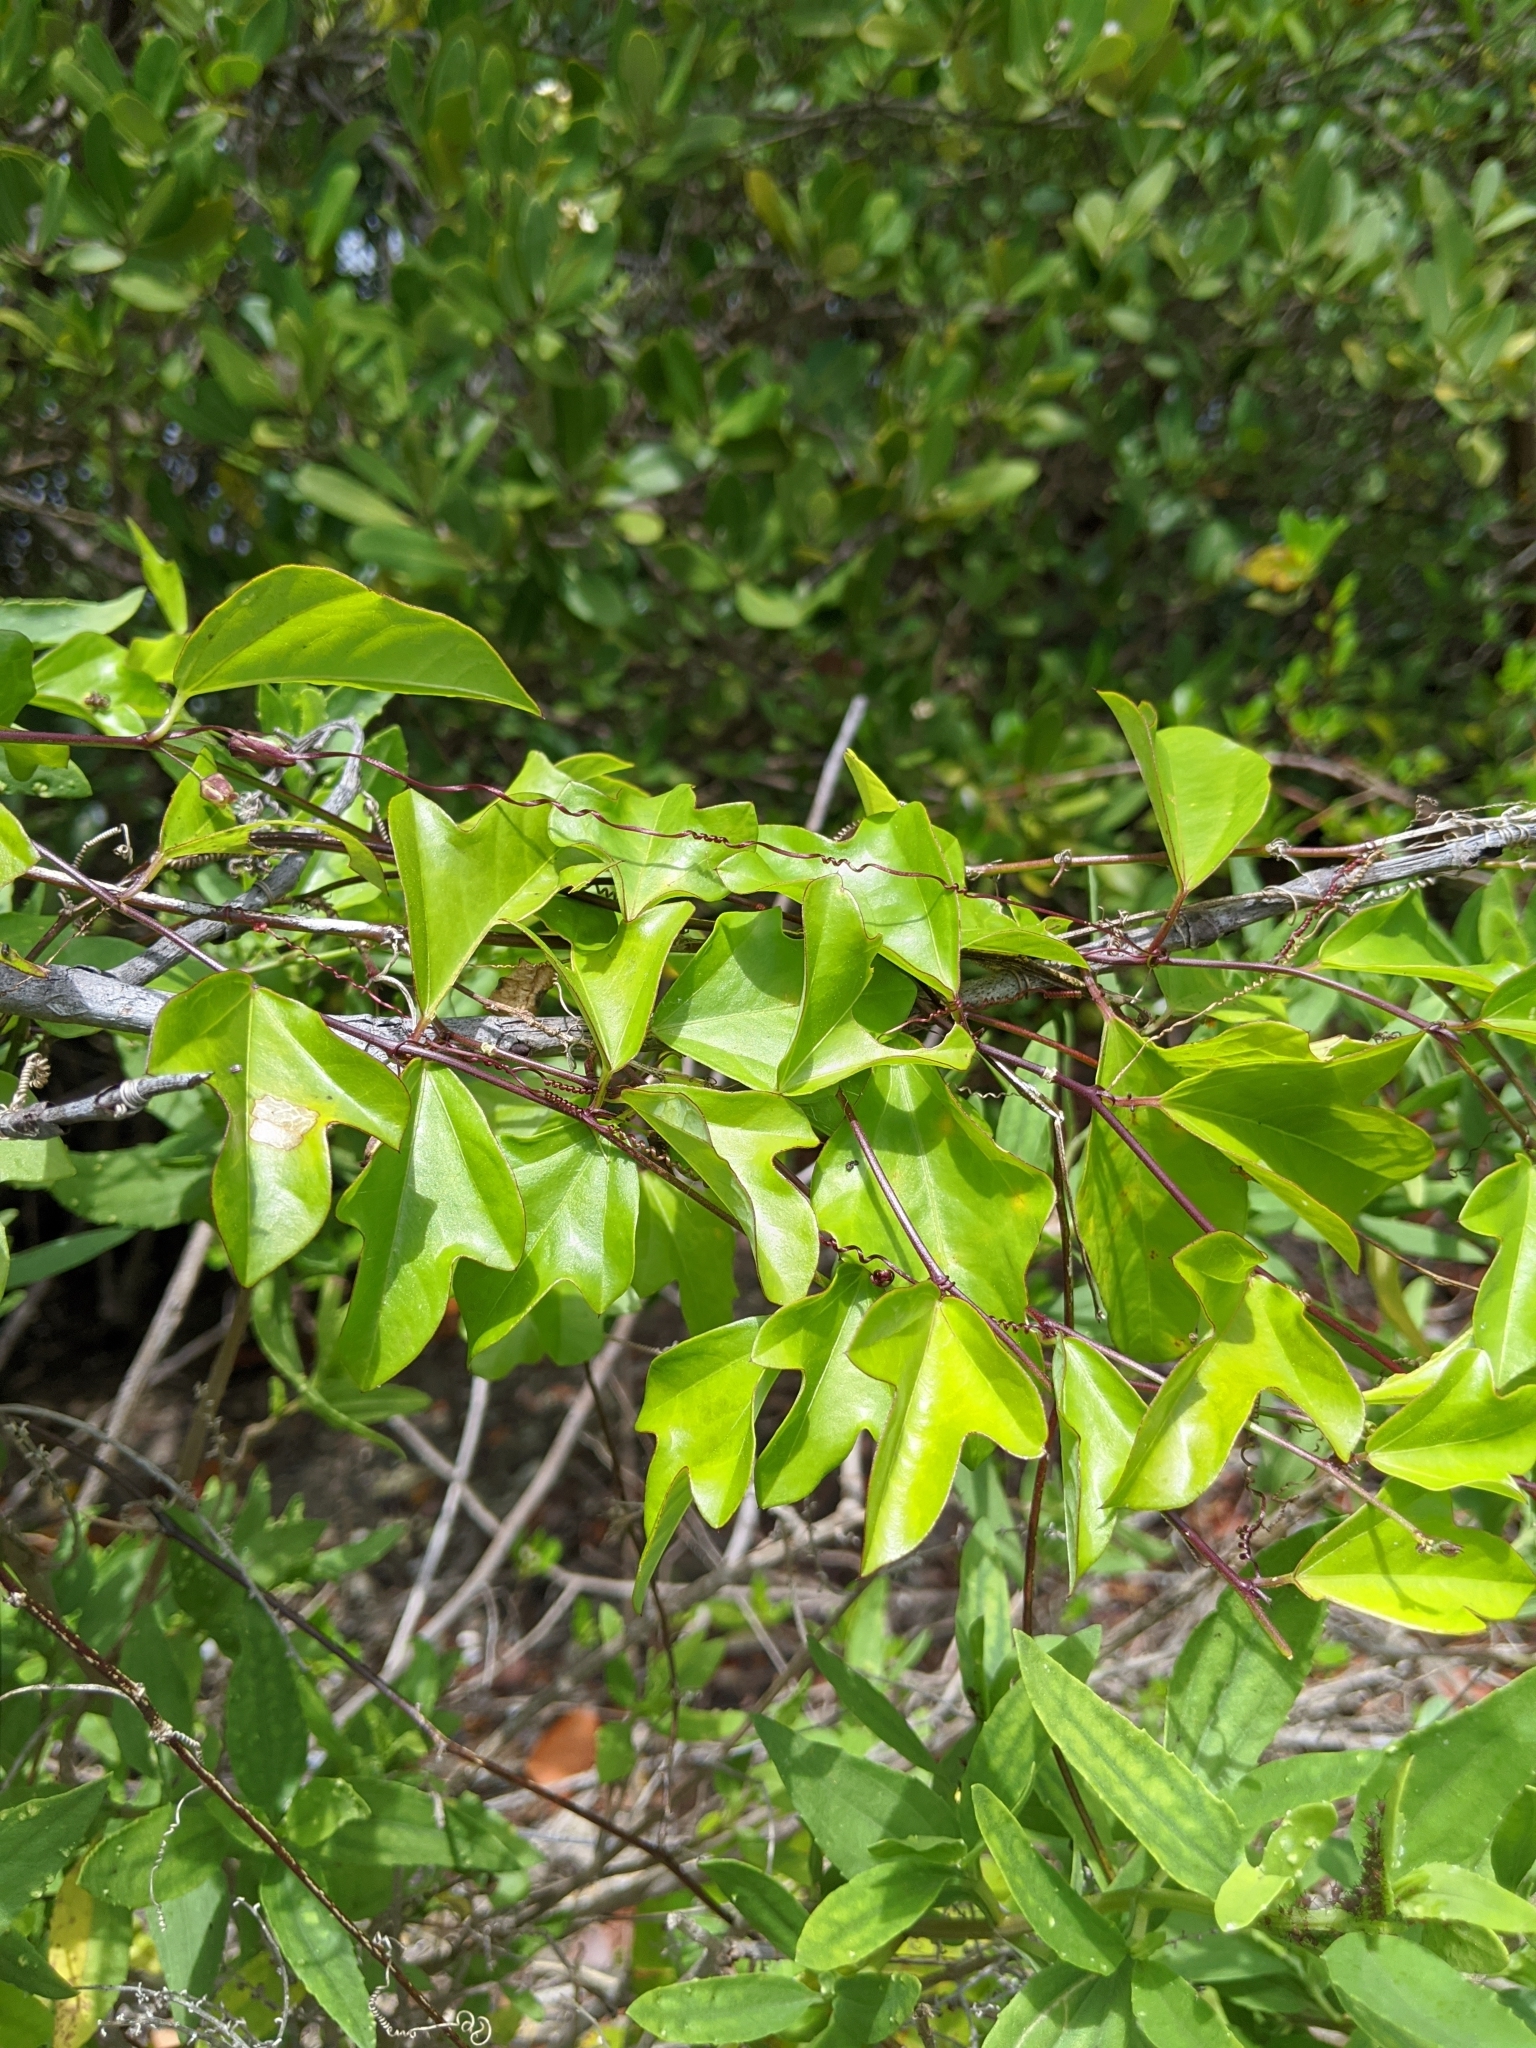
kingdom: Plantae
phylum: Tracheophyta
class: Magnoliopsida
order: Malpighiales
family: Passifloraceae
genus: Passiflora
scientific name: Passiflora pallida
